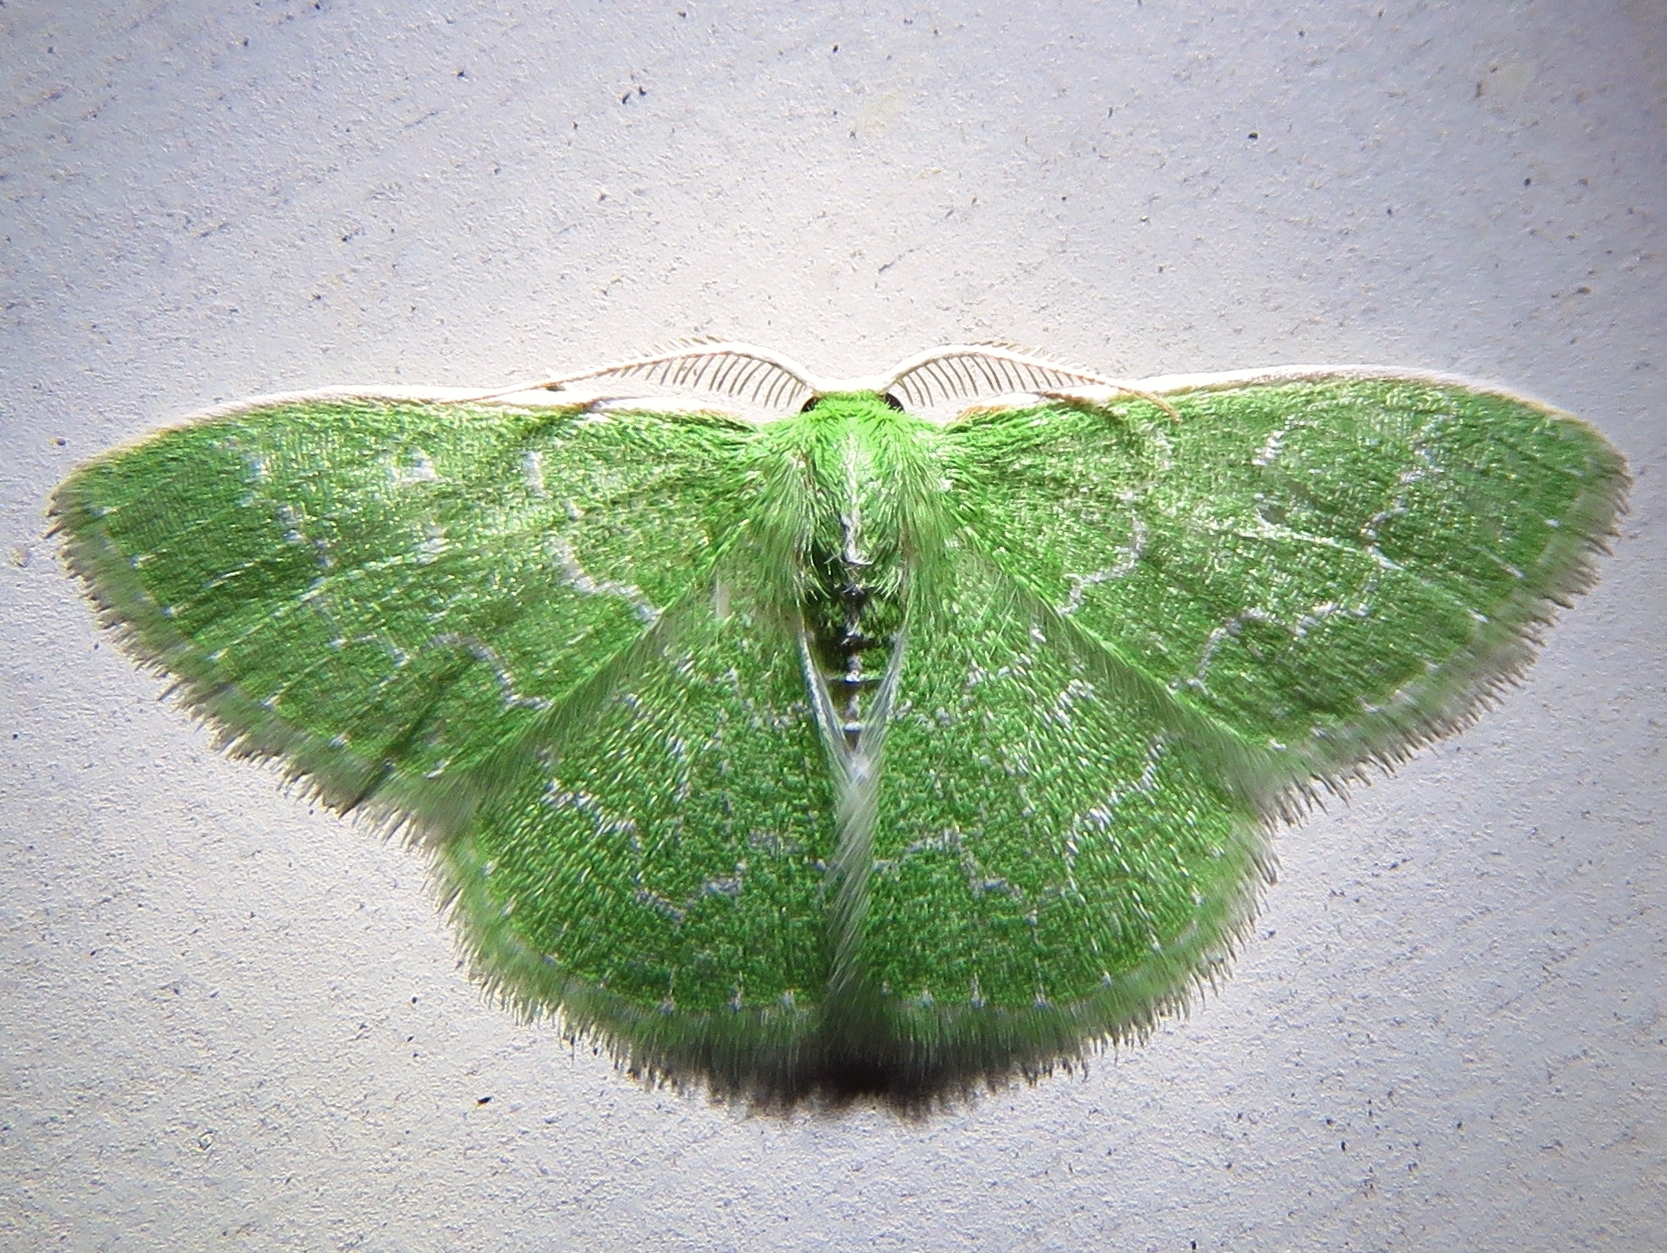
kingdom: Animalia
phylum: Arthropoda
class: Insecta
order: Lepidoptera
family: Geometridae
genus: Synchlora
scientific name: Synchlora frondaria
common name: Southern emerald
